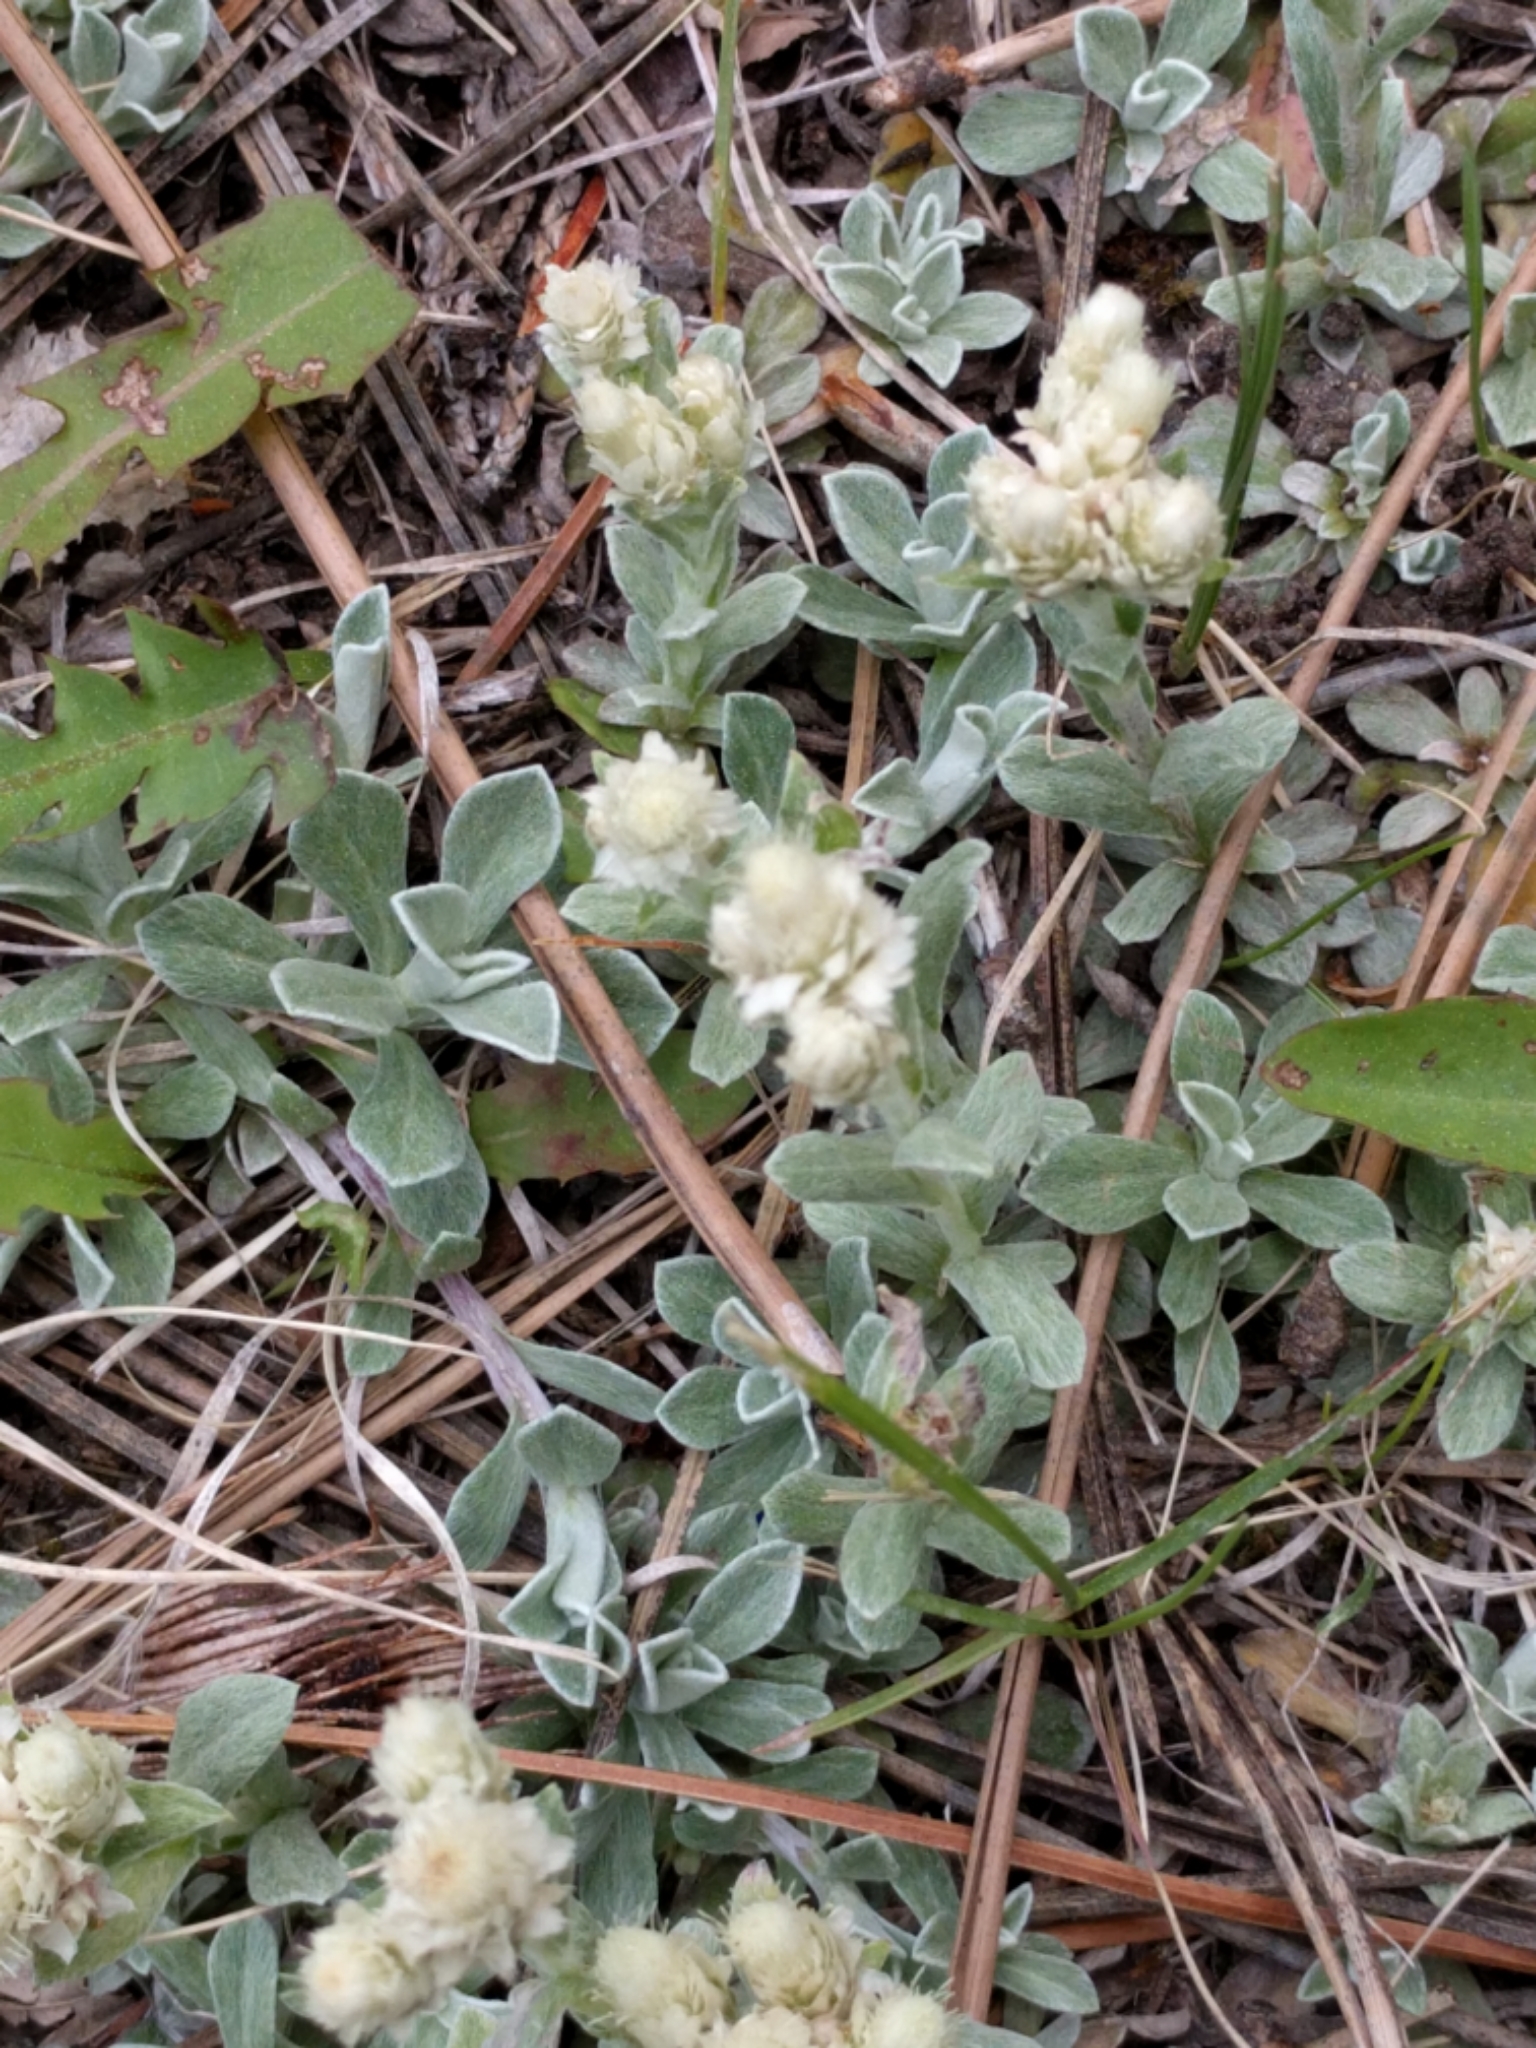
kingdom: Plantae
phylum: Tracheophyta
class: Magnoliopsida
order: Asterales
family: Asteraceae
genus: Antennaria
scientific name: Antennaria parvifolia
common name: Nuttall's pussytoes
